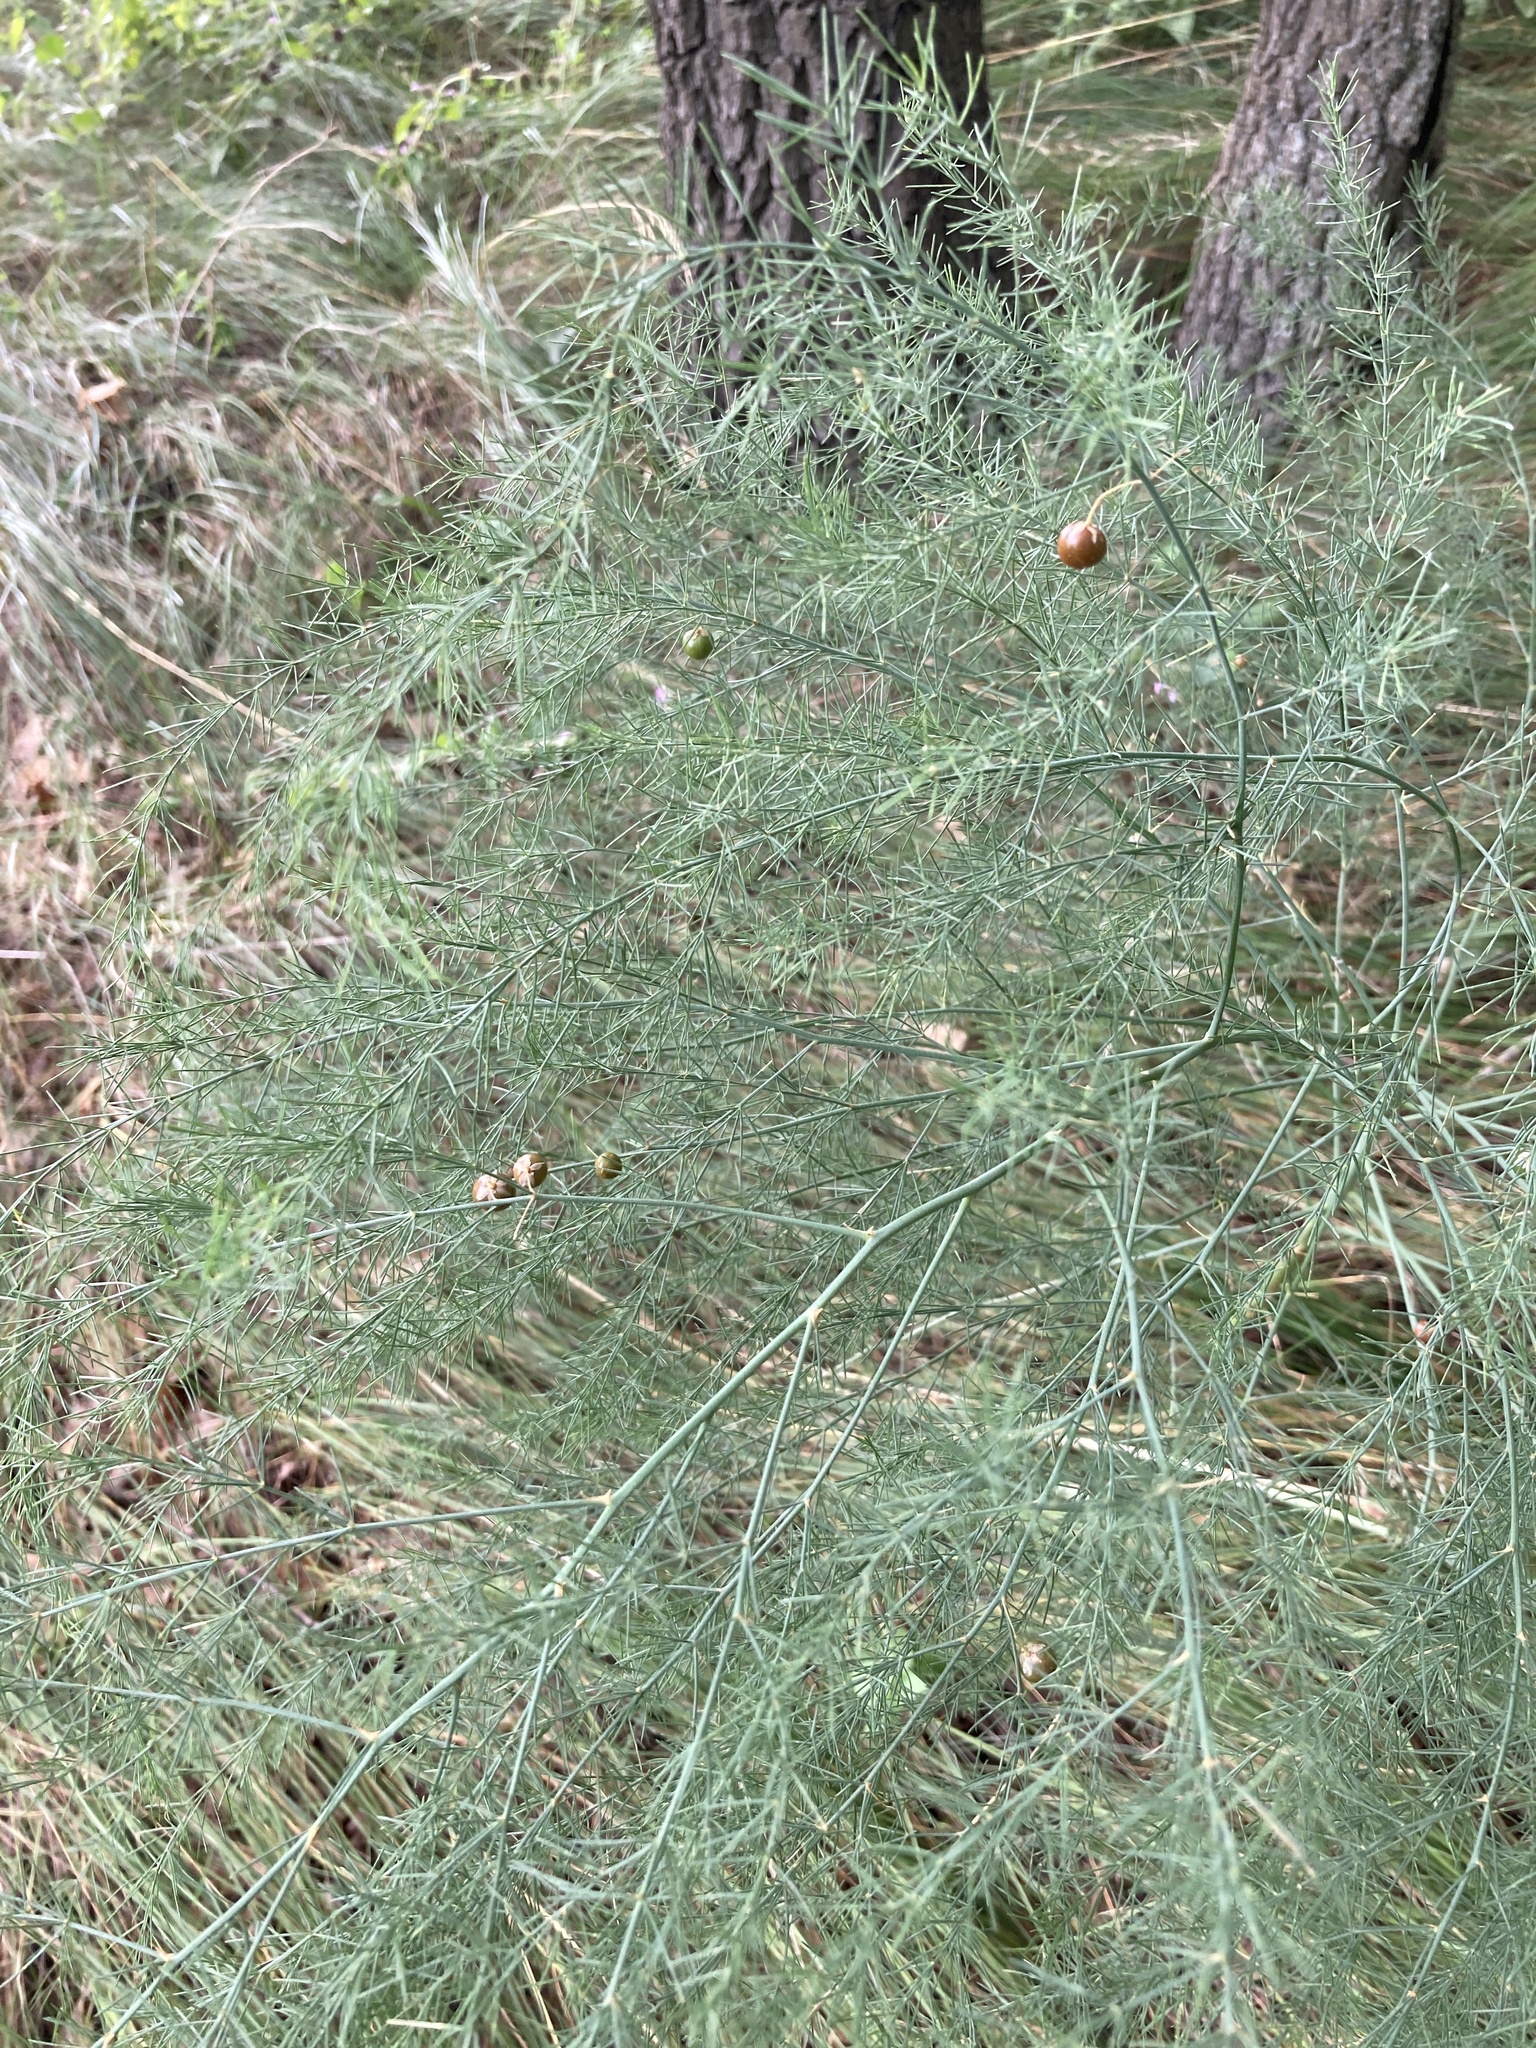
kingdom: Plantae
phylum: Tracheophyta
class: Liliopsida
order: Asparagales
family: Asparagaceae
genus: Asparagus
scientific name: Asparagus officinalis
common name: Garden asparagus
